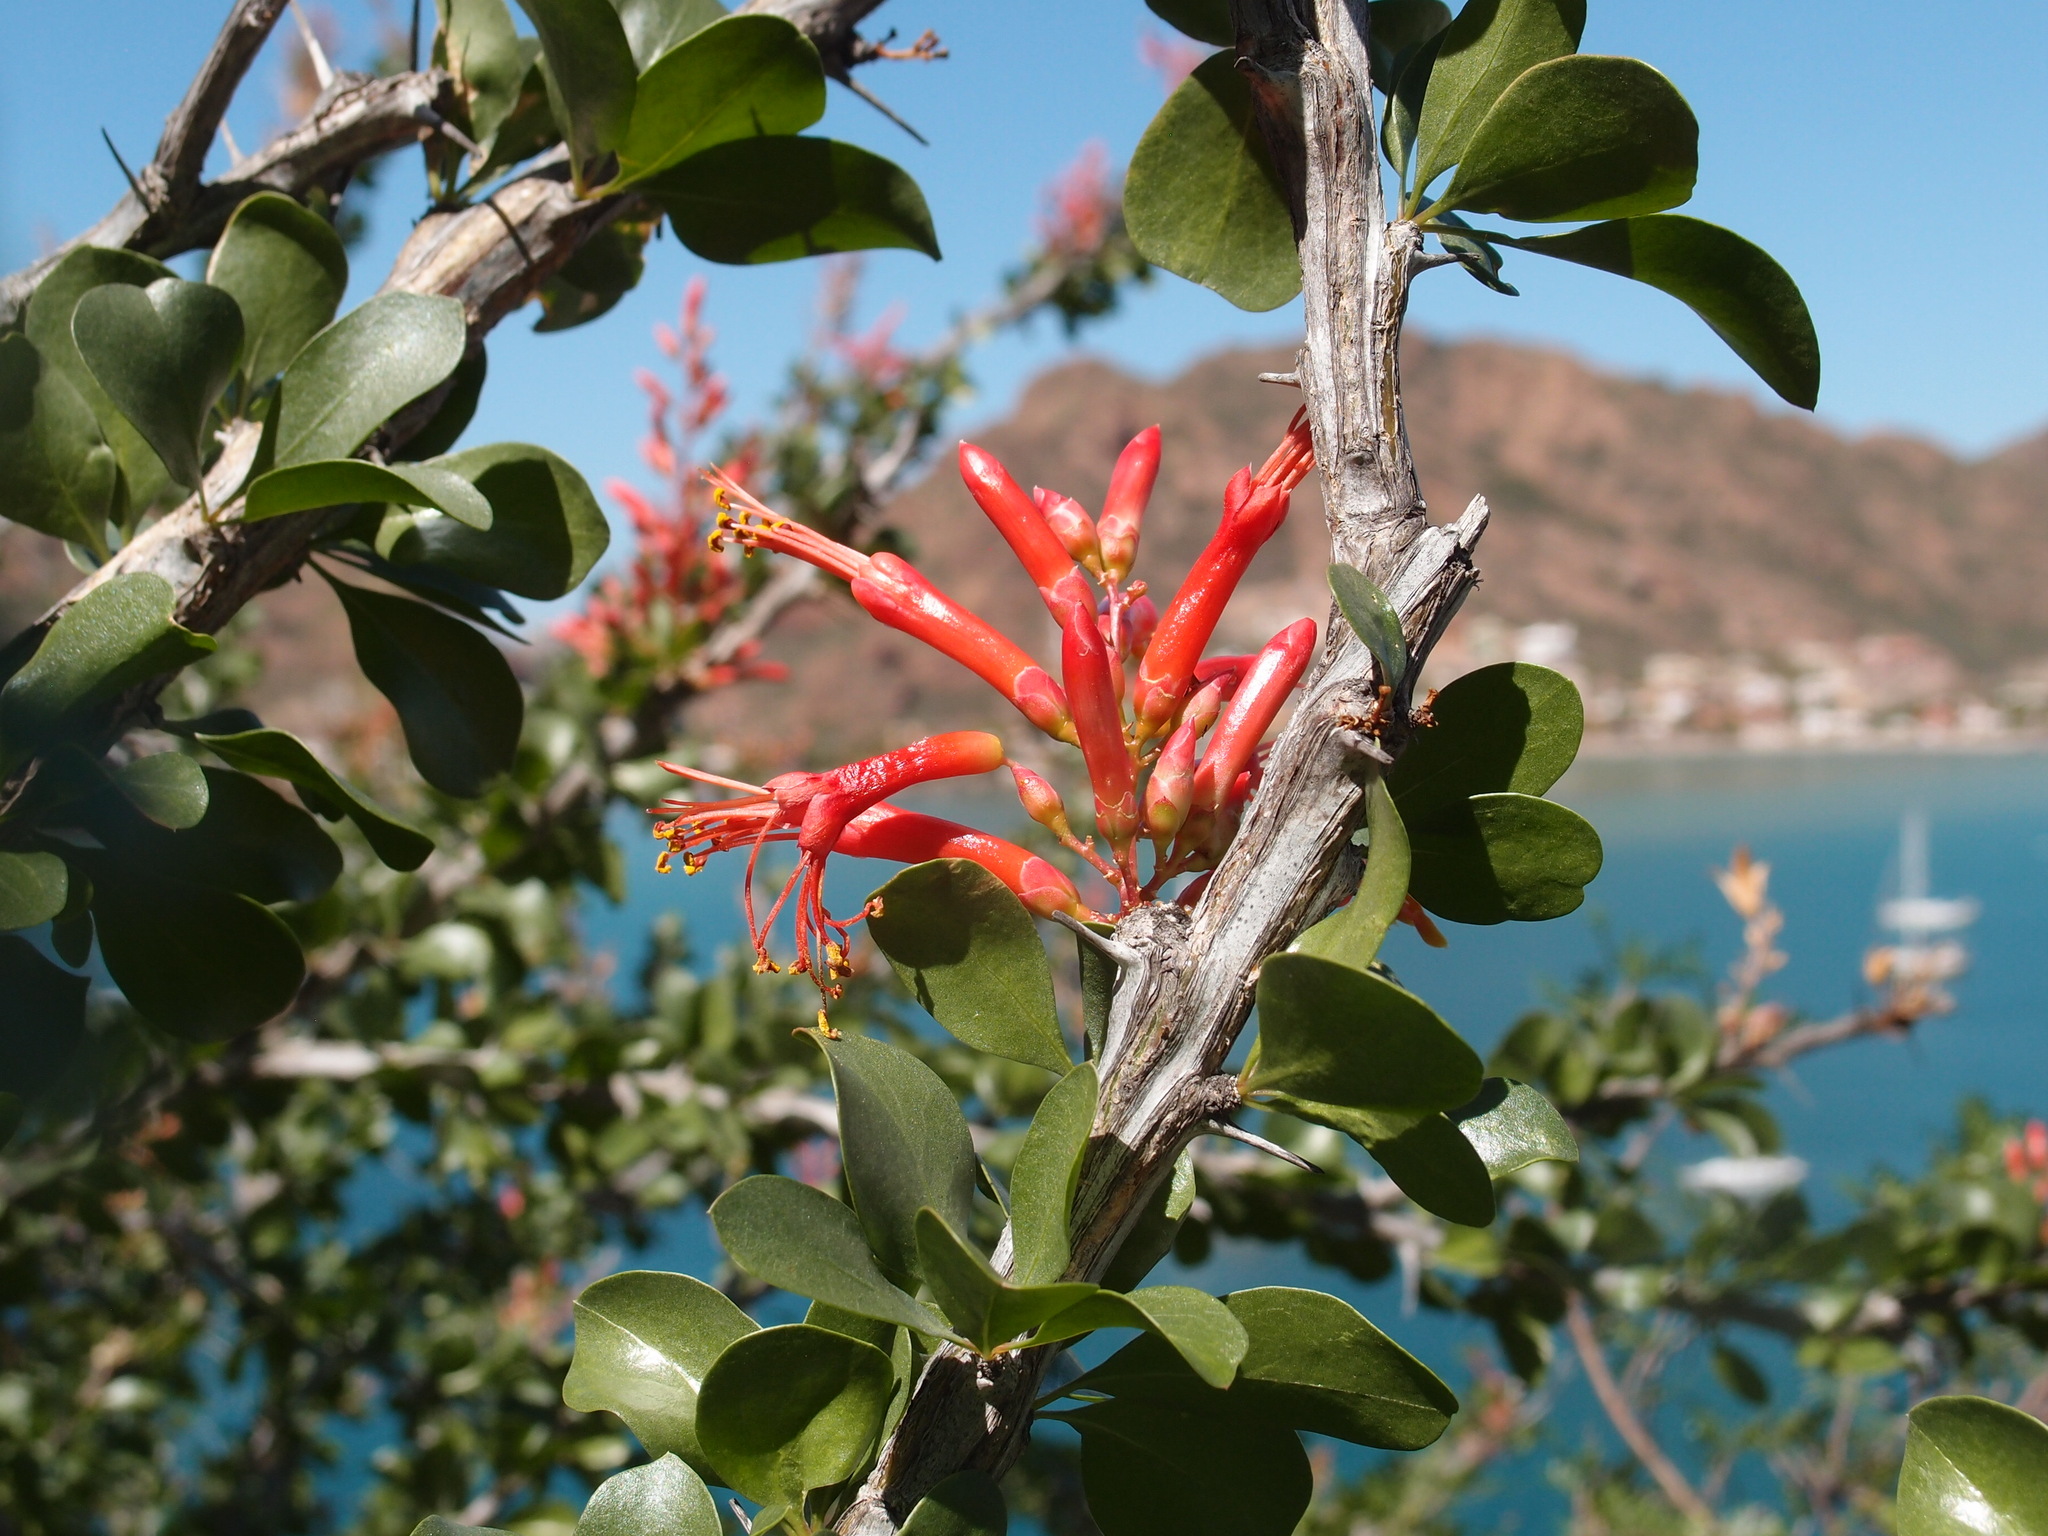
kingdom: Plantae
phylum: Tracheophyta
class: Magnoliopsida
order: Ericales
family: Fouquieriaceae
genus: Fouquieria
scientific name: Fouquieria diguetii
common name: Adam's tree
